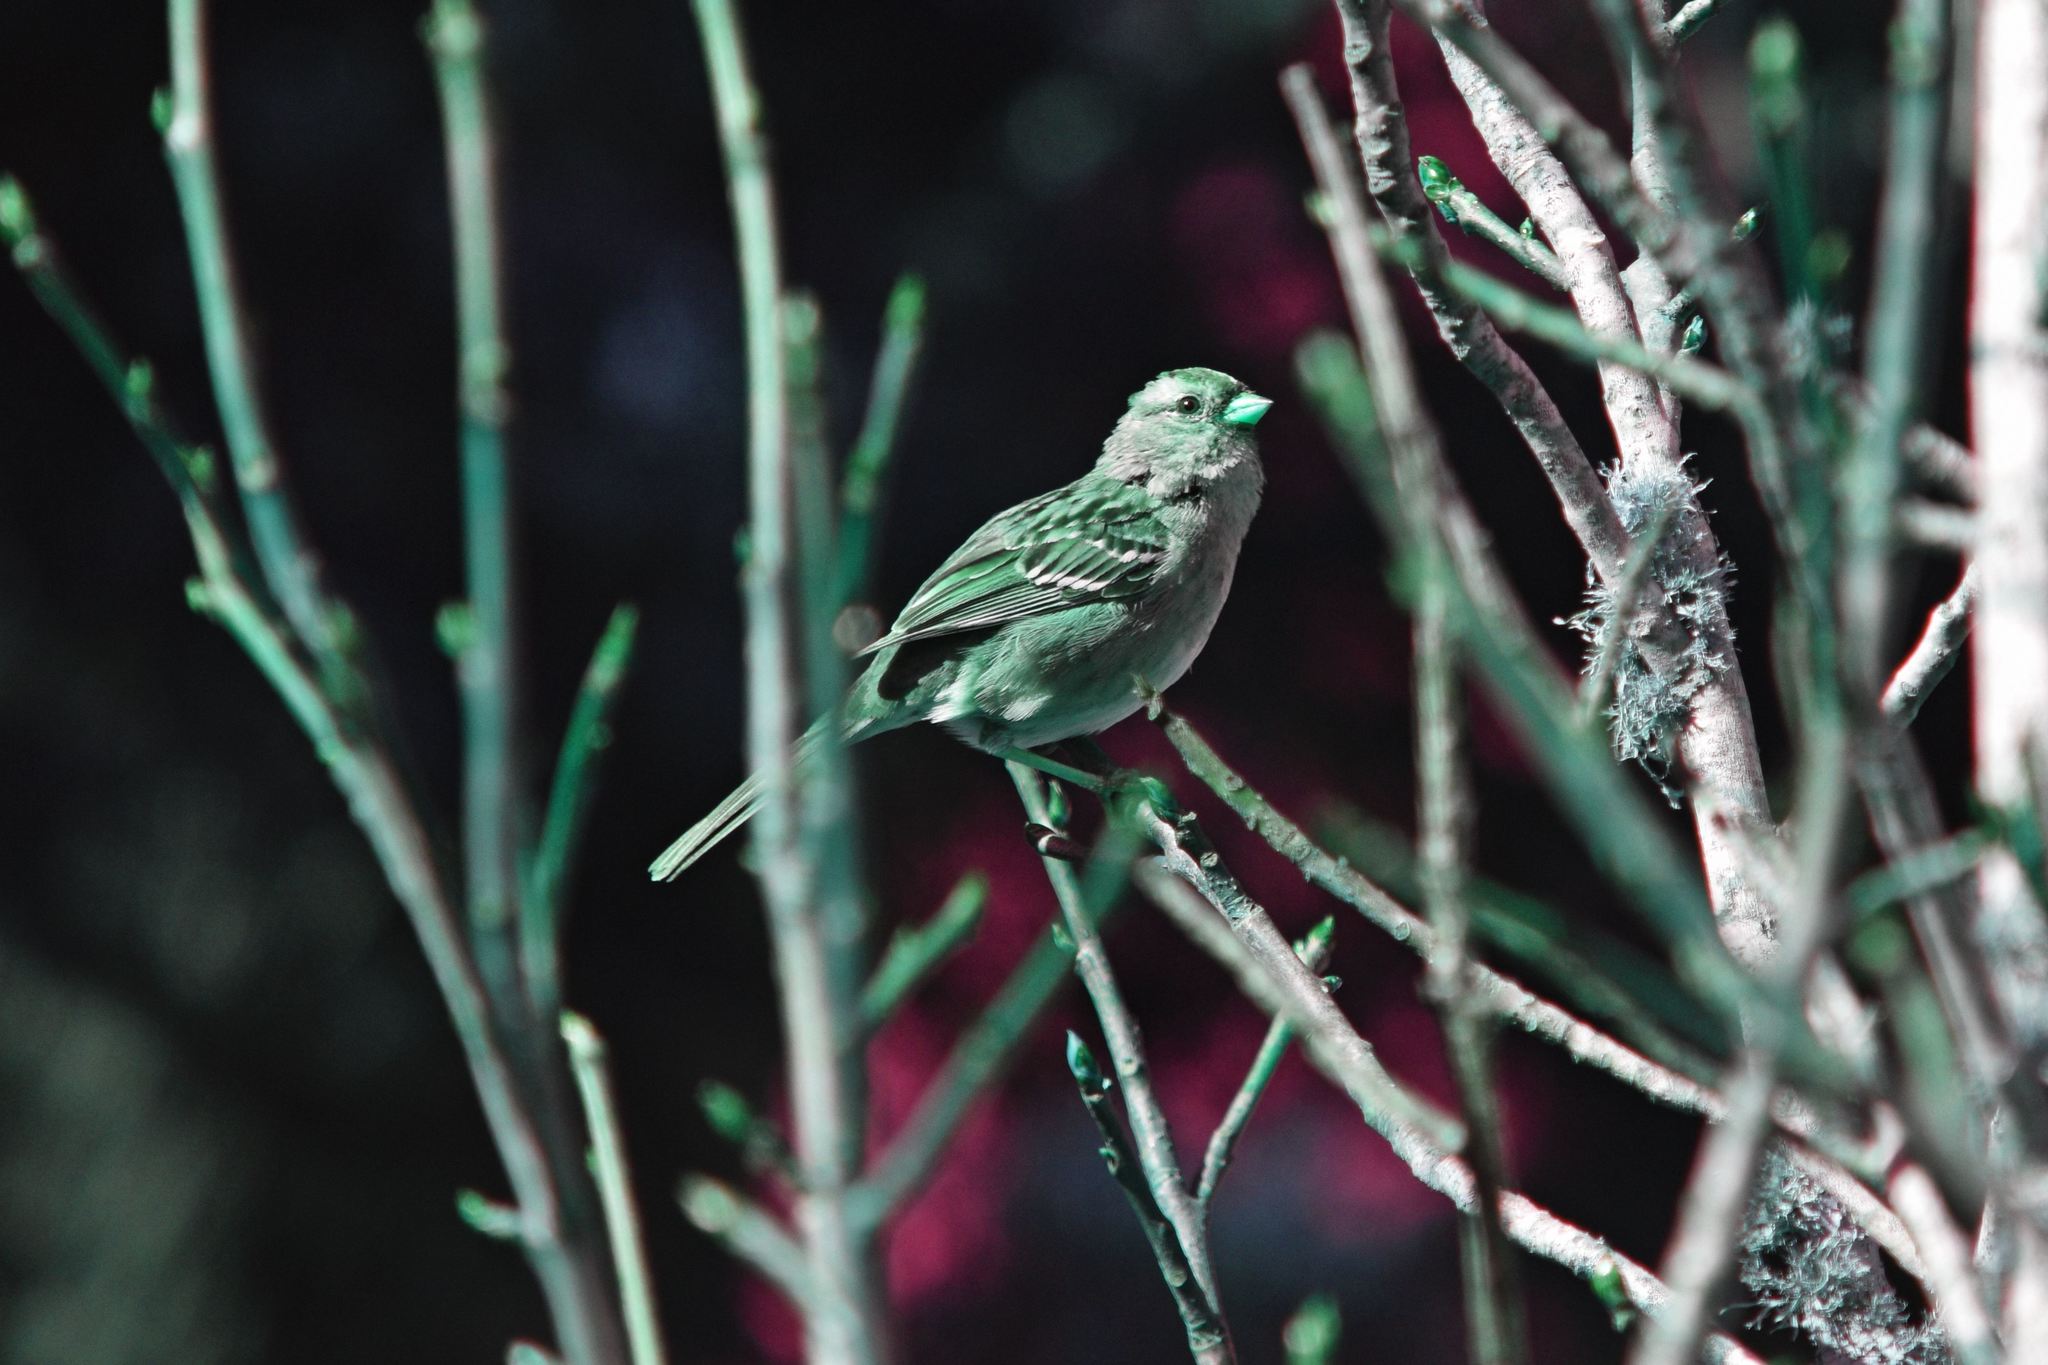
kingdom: Animalia
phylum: Chordata
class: Aves
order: Passeriformes
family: Passerellidae
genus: Zonotrichia
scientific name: Zonotrichia leucophrys
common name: White-crowned sparrow
